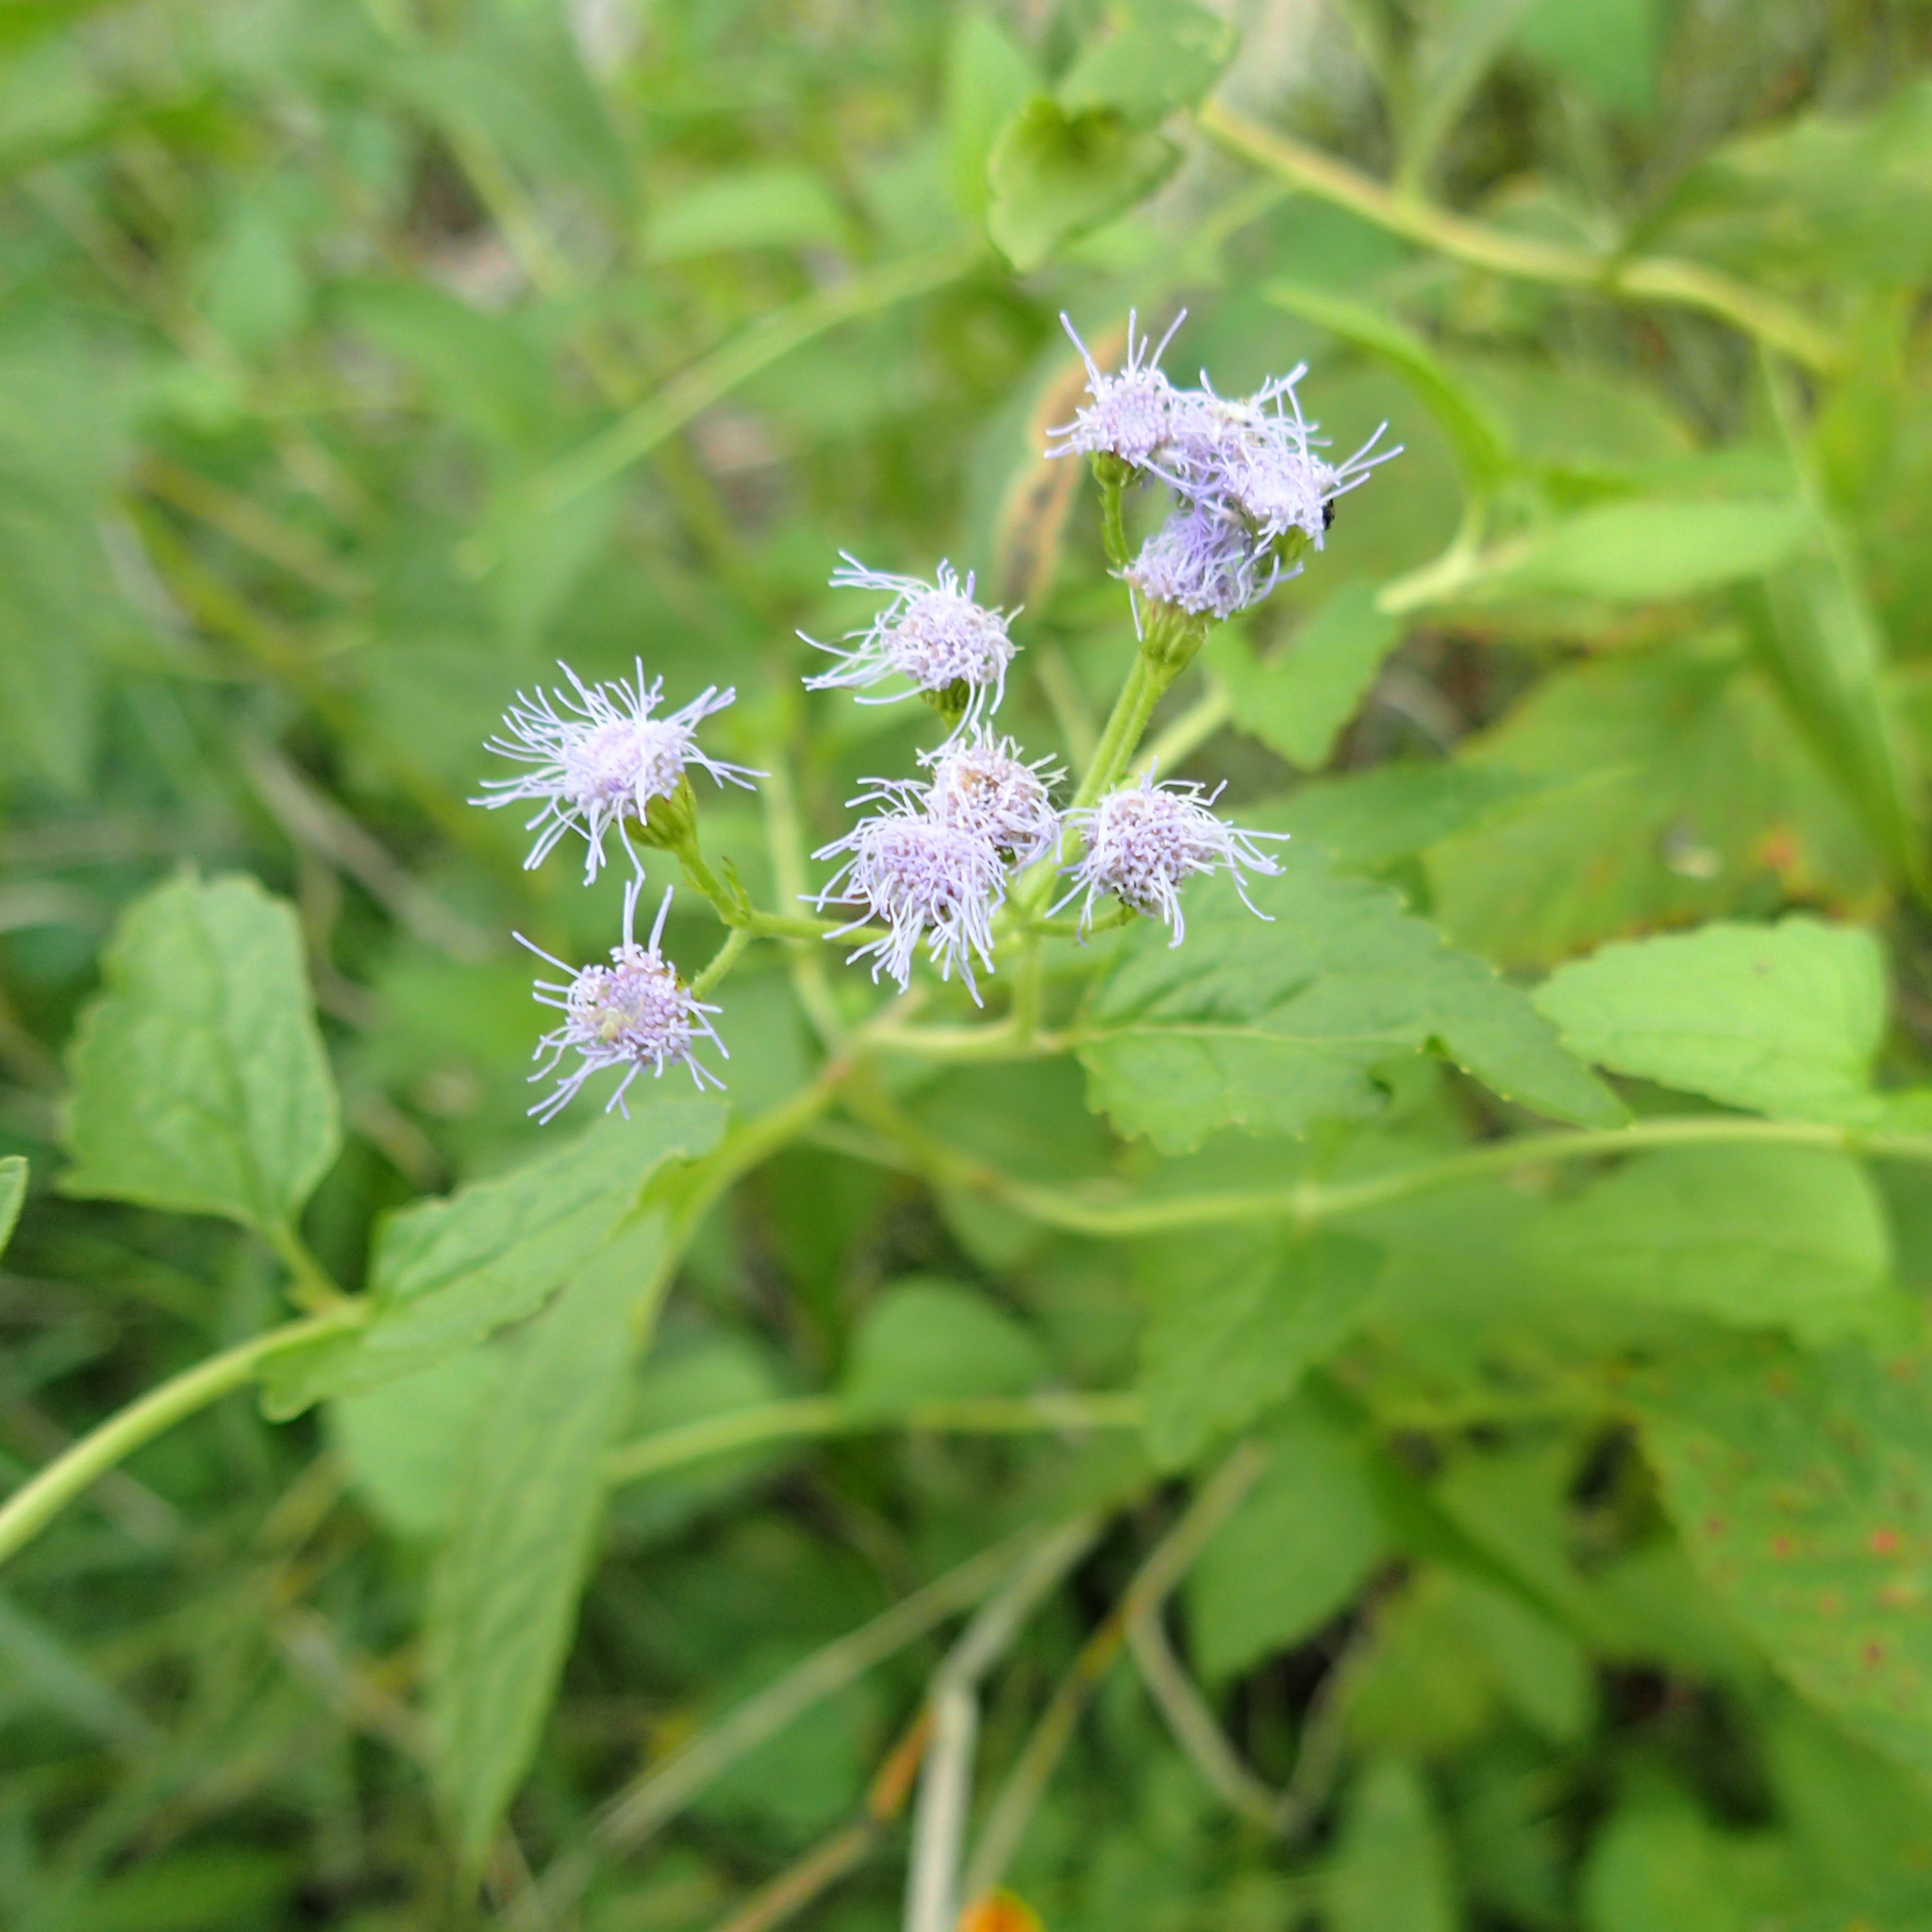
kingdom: Plantae
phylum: Tracheophyta
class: Magnoliopsida
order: Asterales
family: Asteraceae
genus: Conoclinium
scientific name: Conoclinium coelestinum
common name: Blue mistflower
